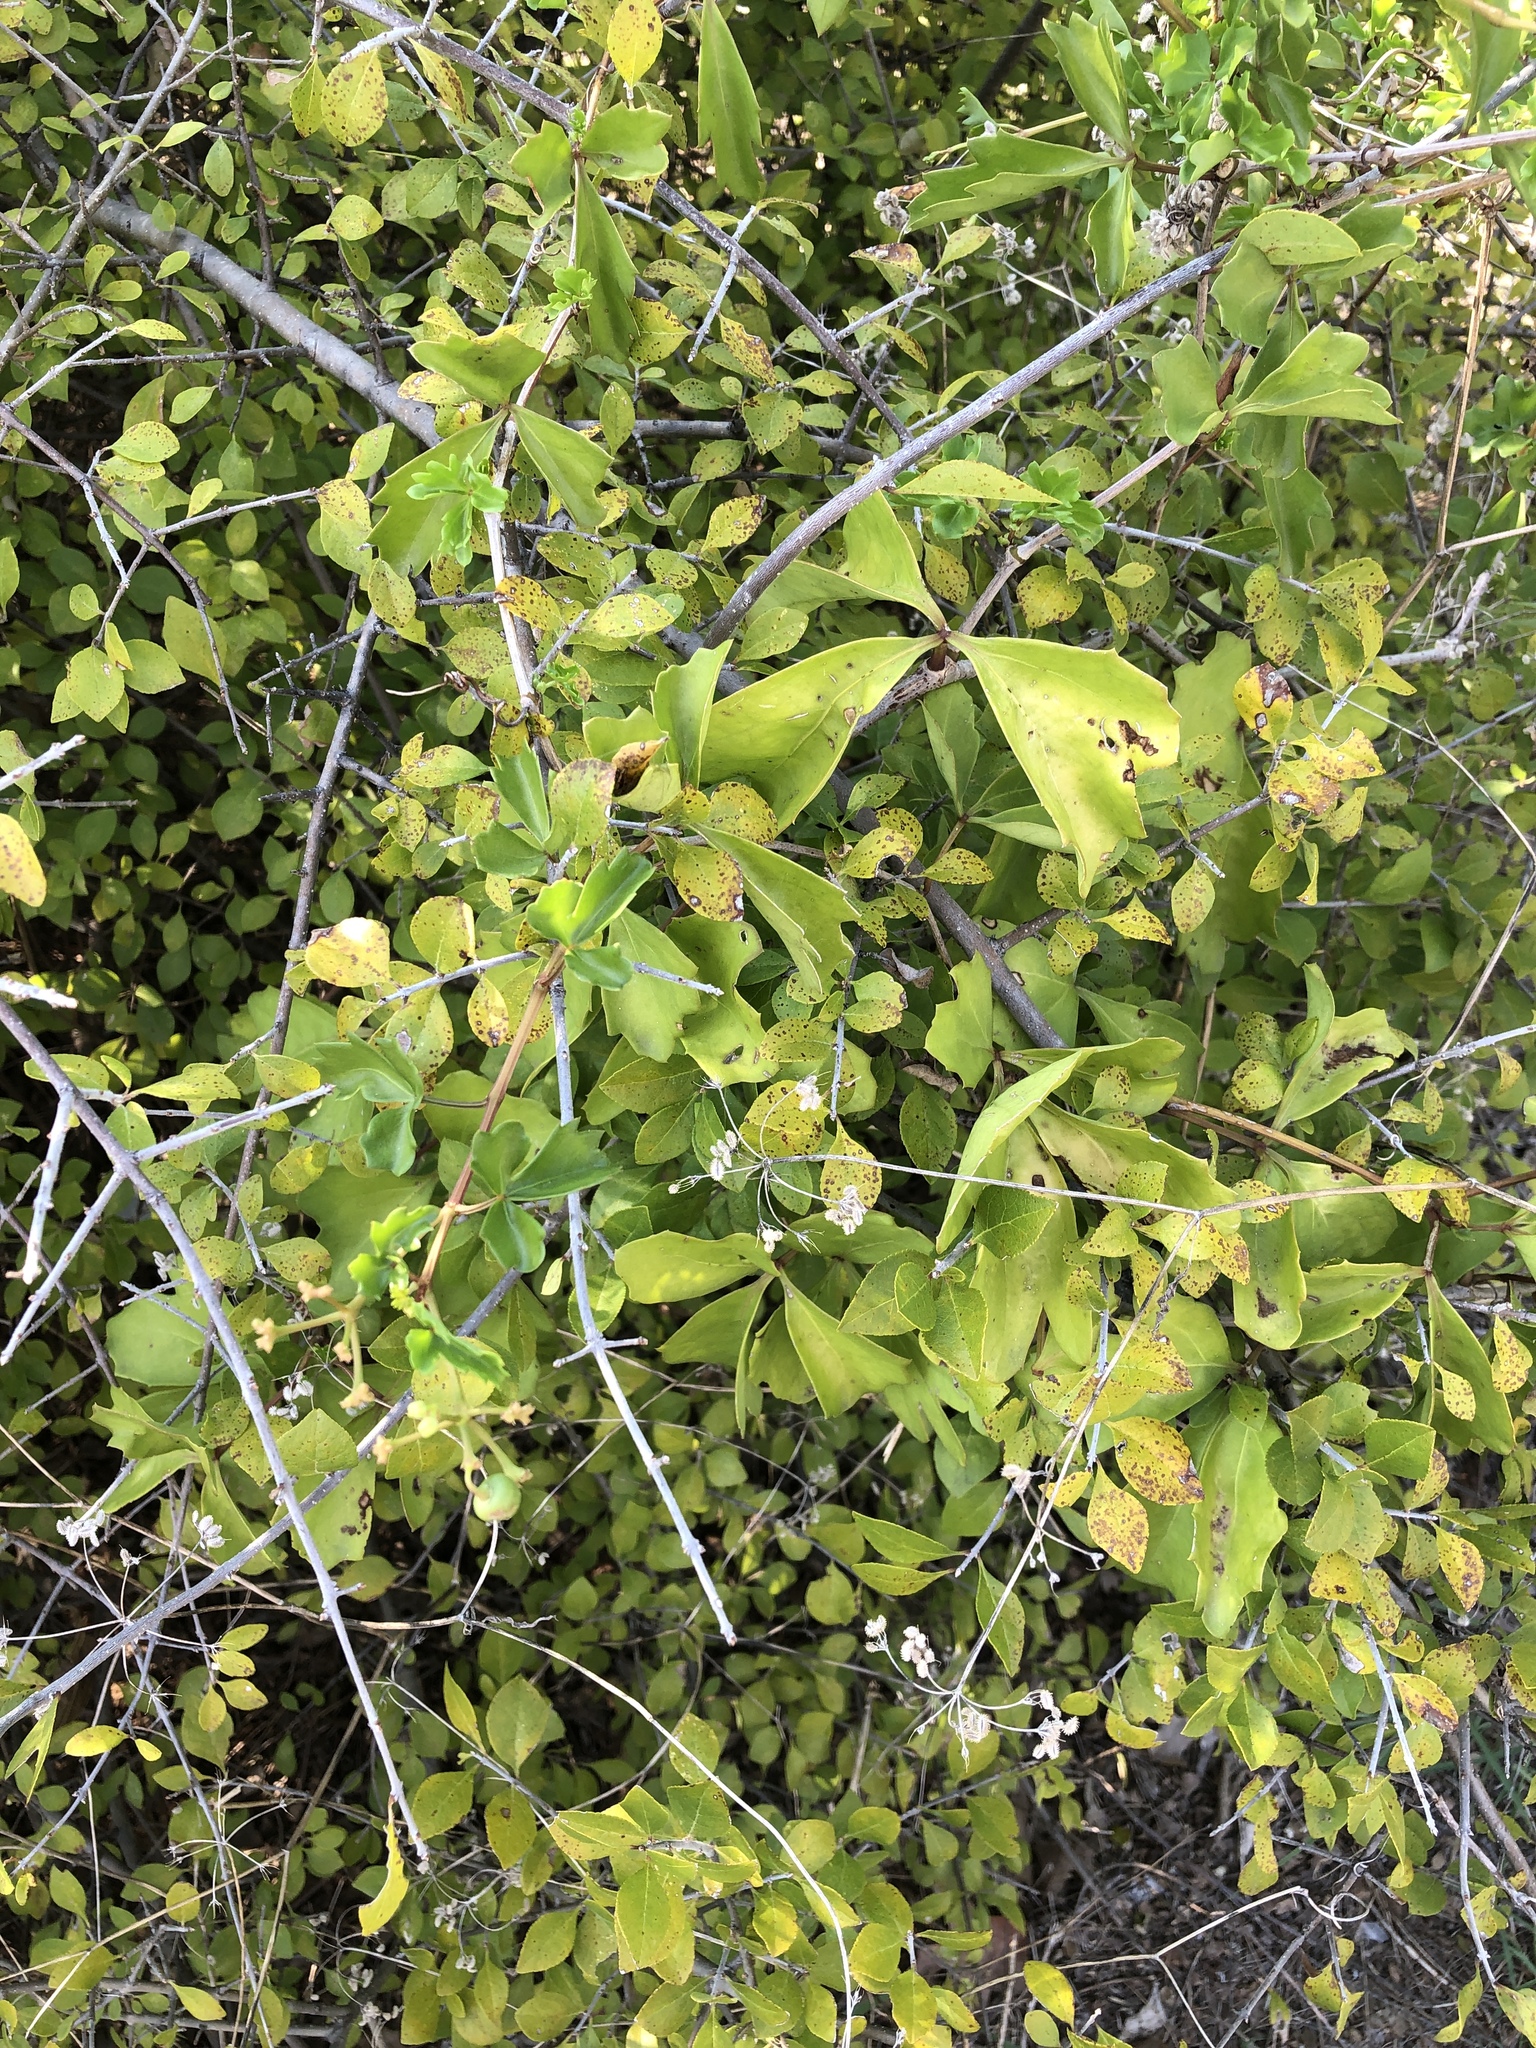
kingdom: Plantae
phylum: Tracheophyta
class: Magnoliopsida
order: Vitales
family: Vitaceae
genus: Cissus
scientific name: Cissus trifoliata
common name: Vine-sorrel
